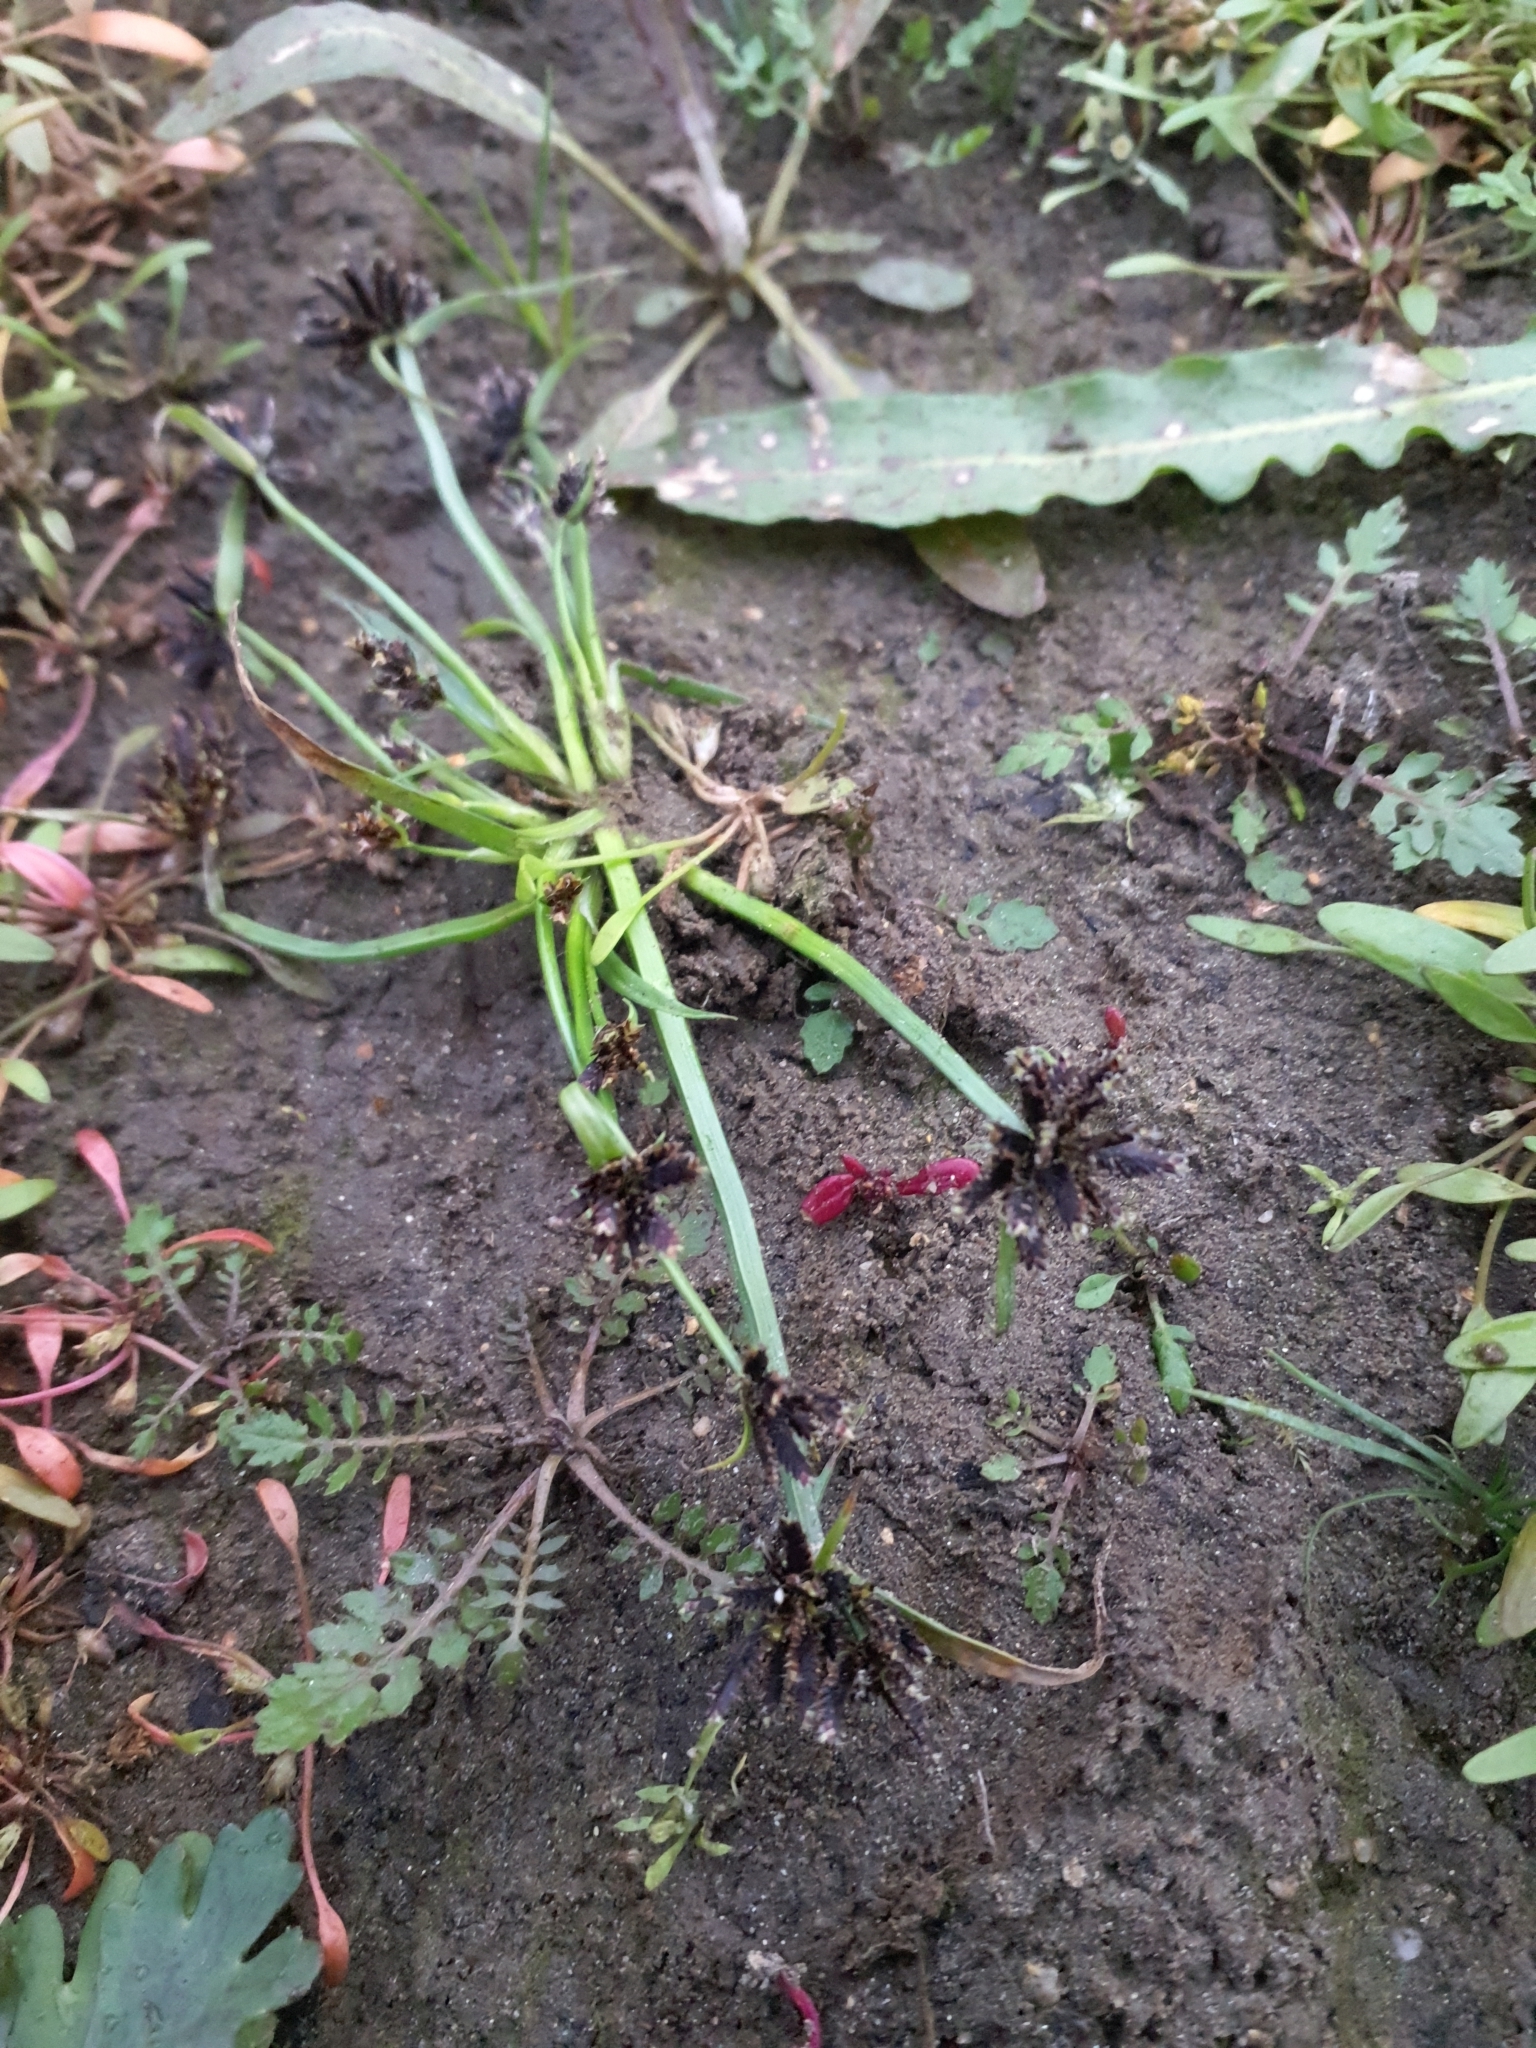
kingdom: Plantae
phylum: Tracheophyta
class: Liliopsida
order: Poales
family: Cyperaceae
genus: Cyperus
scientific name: Cyperus fuscus
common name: Brown galingale
